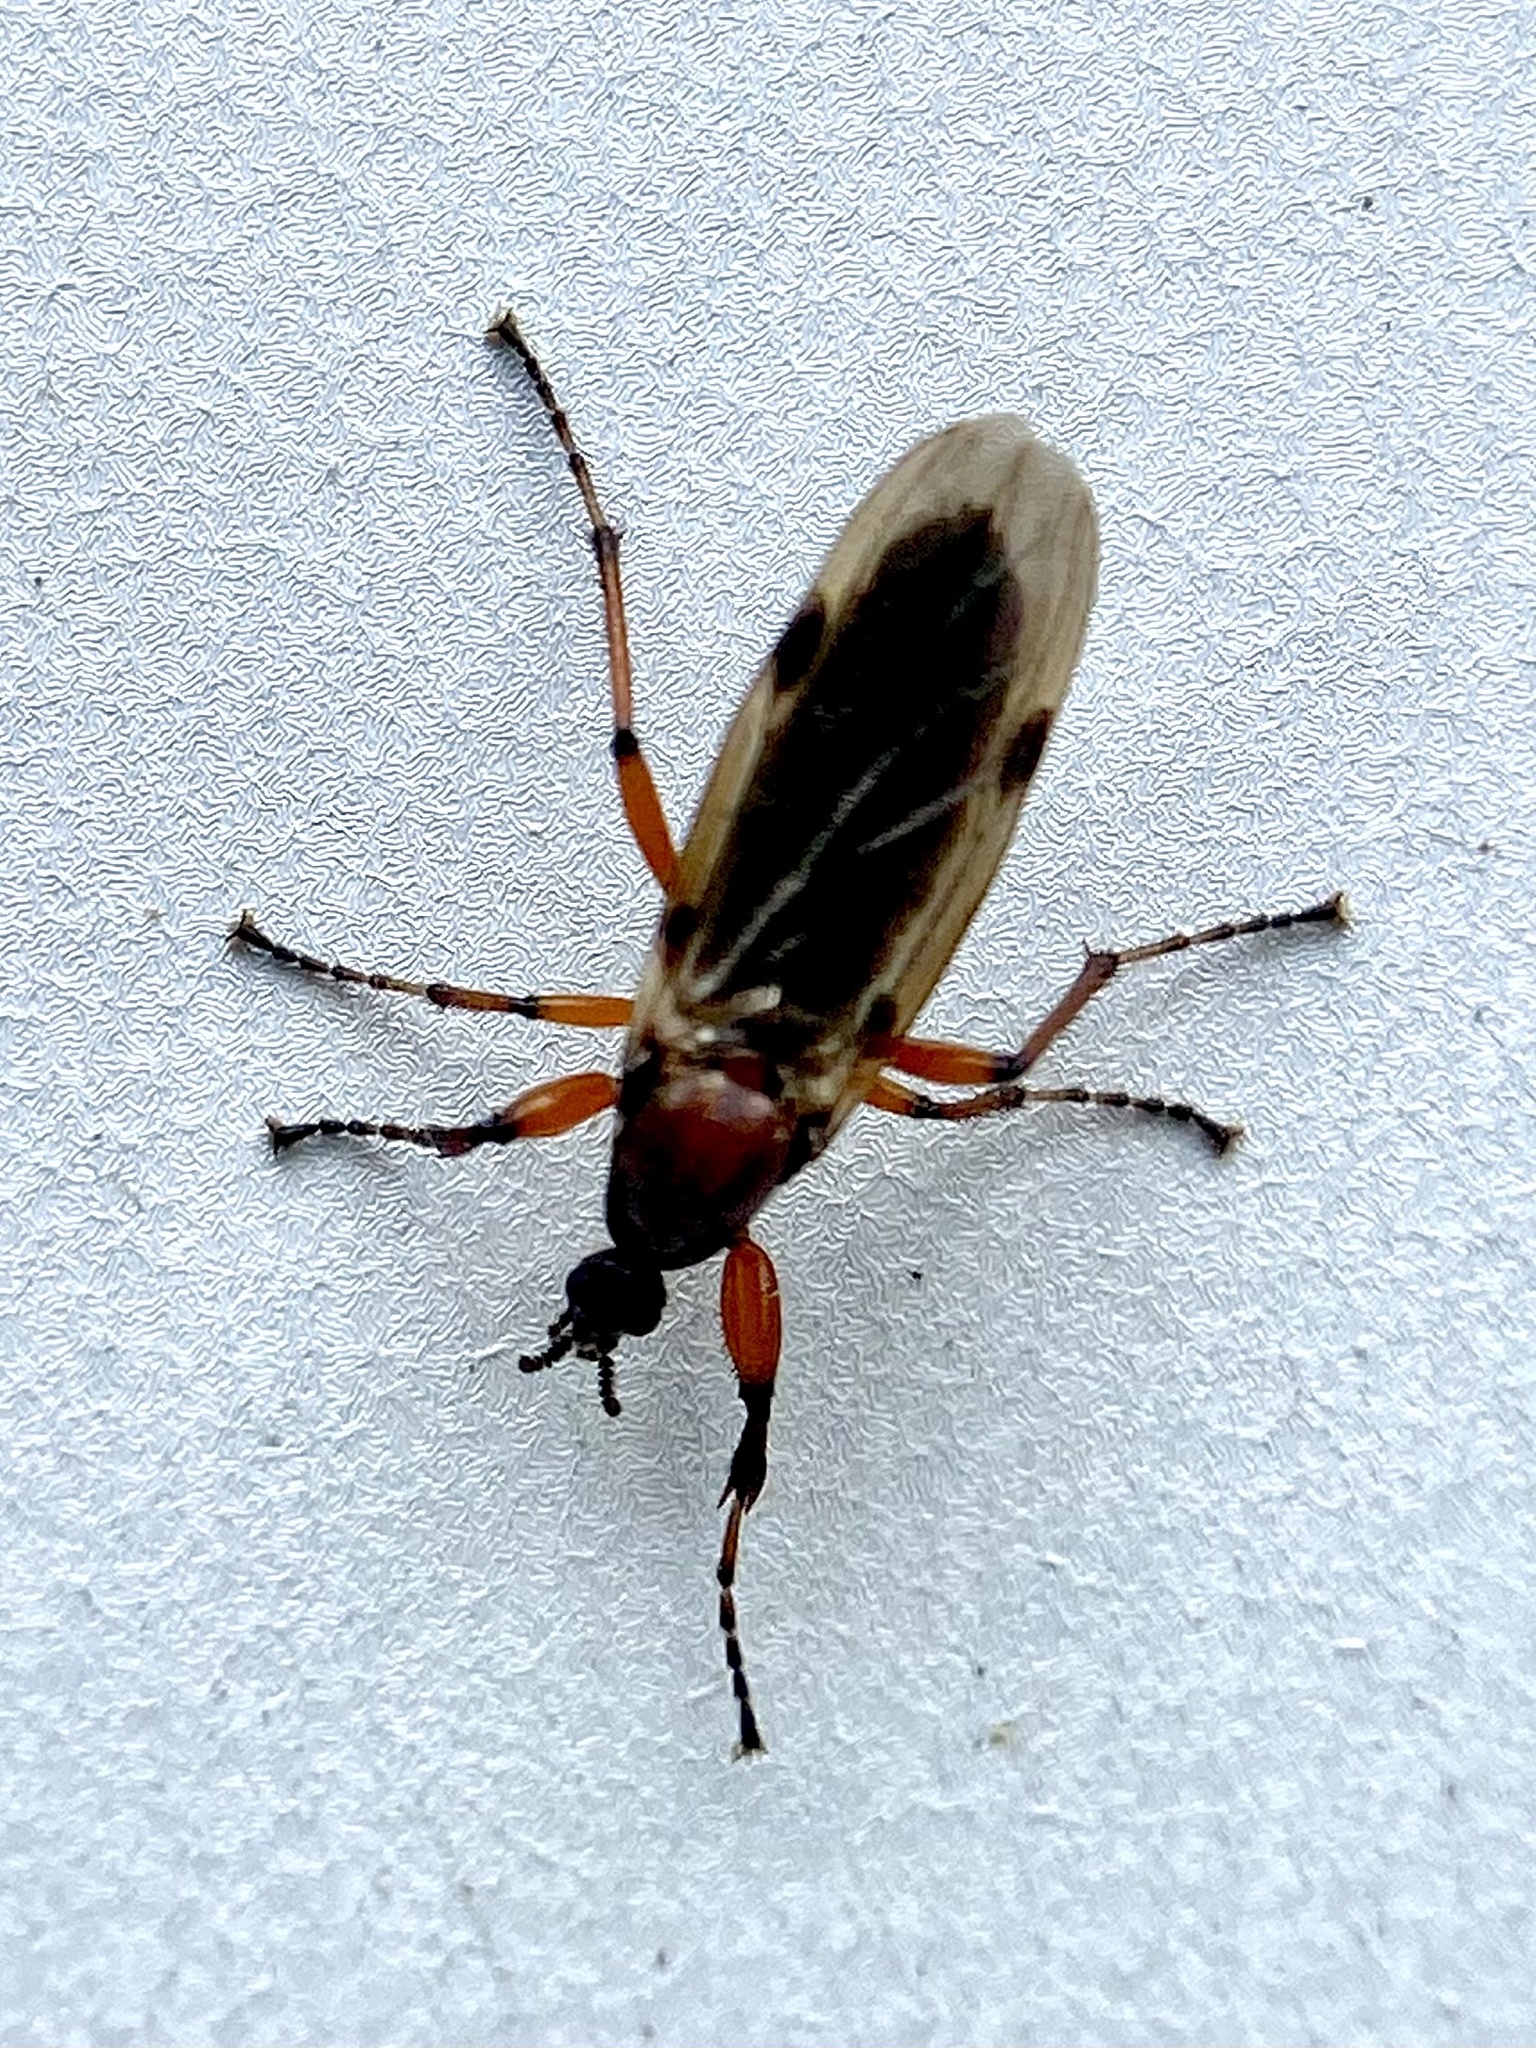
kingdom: Animalia
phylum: Arthropoda
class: Insecta
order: Diptera
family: Bibionidae
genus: Bibio
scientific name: Bibio articulatus
